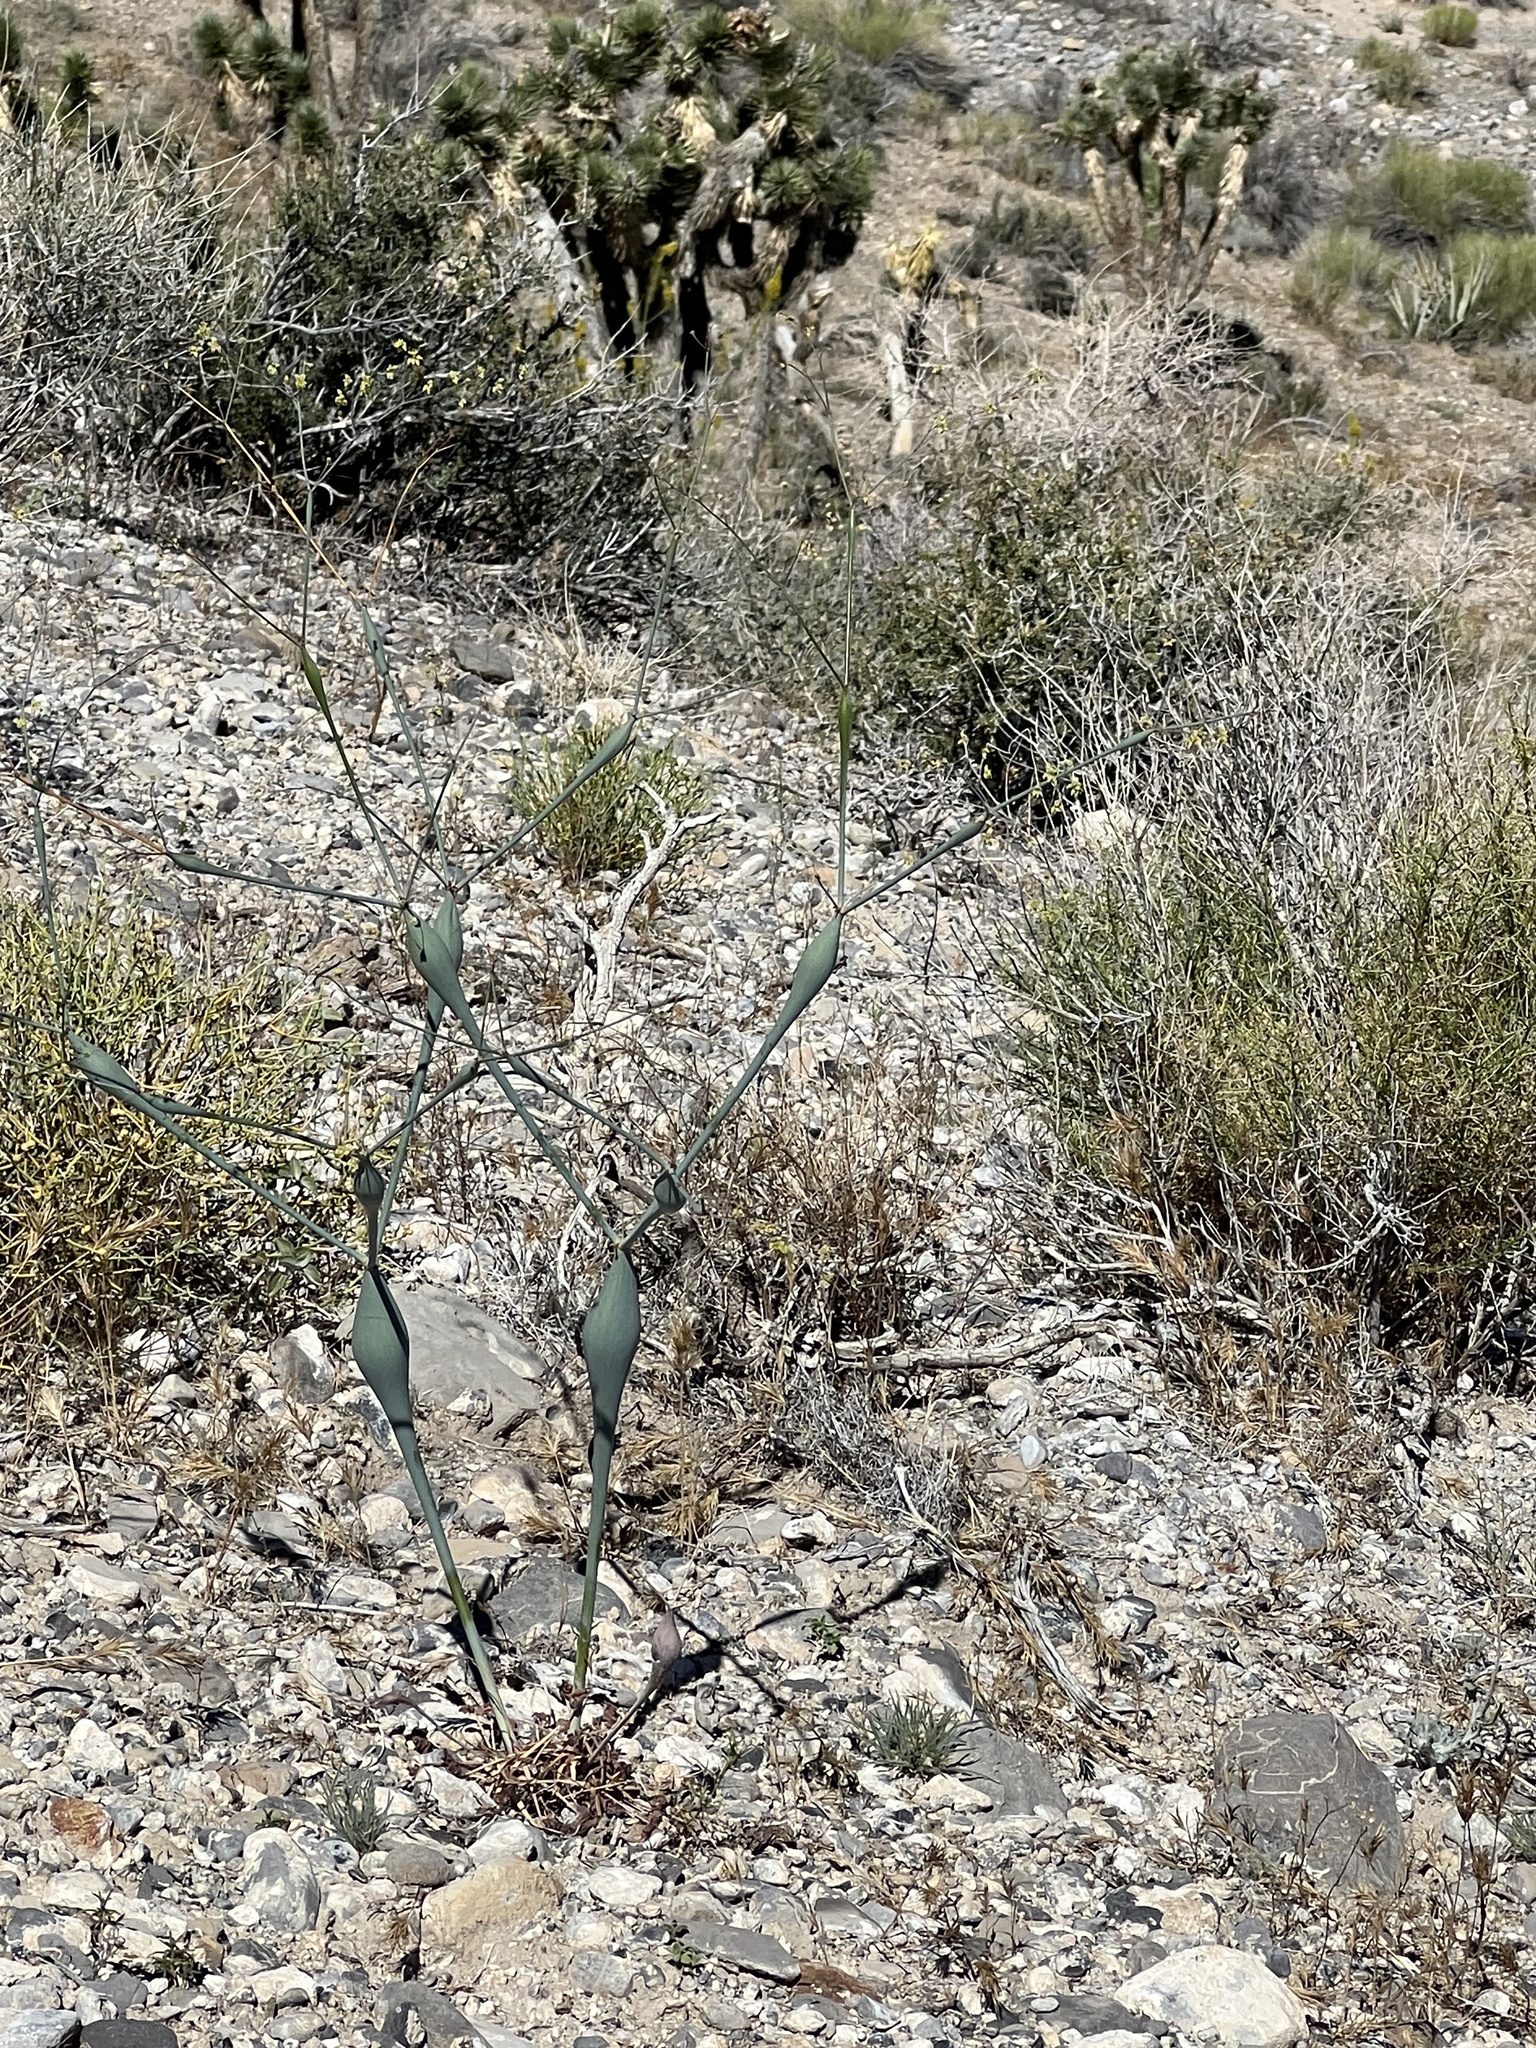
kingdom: Plantae
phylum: Tracheophyta
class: Magnoliopsida
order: Caryophyllales
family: Polygonaceae
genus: Eriogonum
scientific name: Eriogonum inflatum
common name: Desert trumpet
